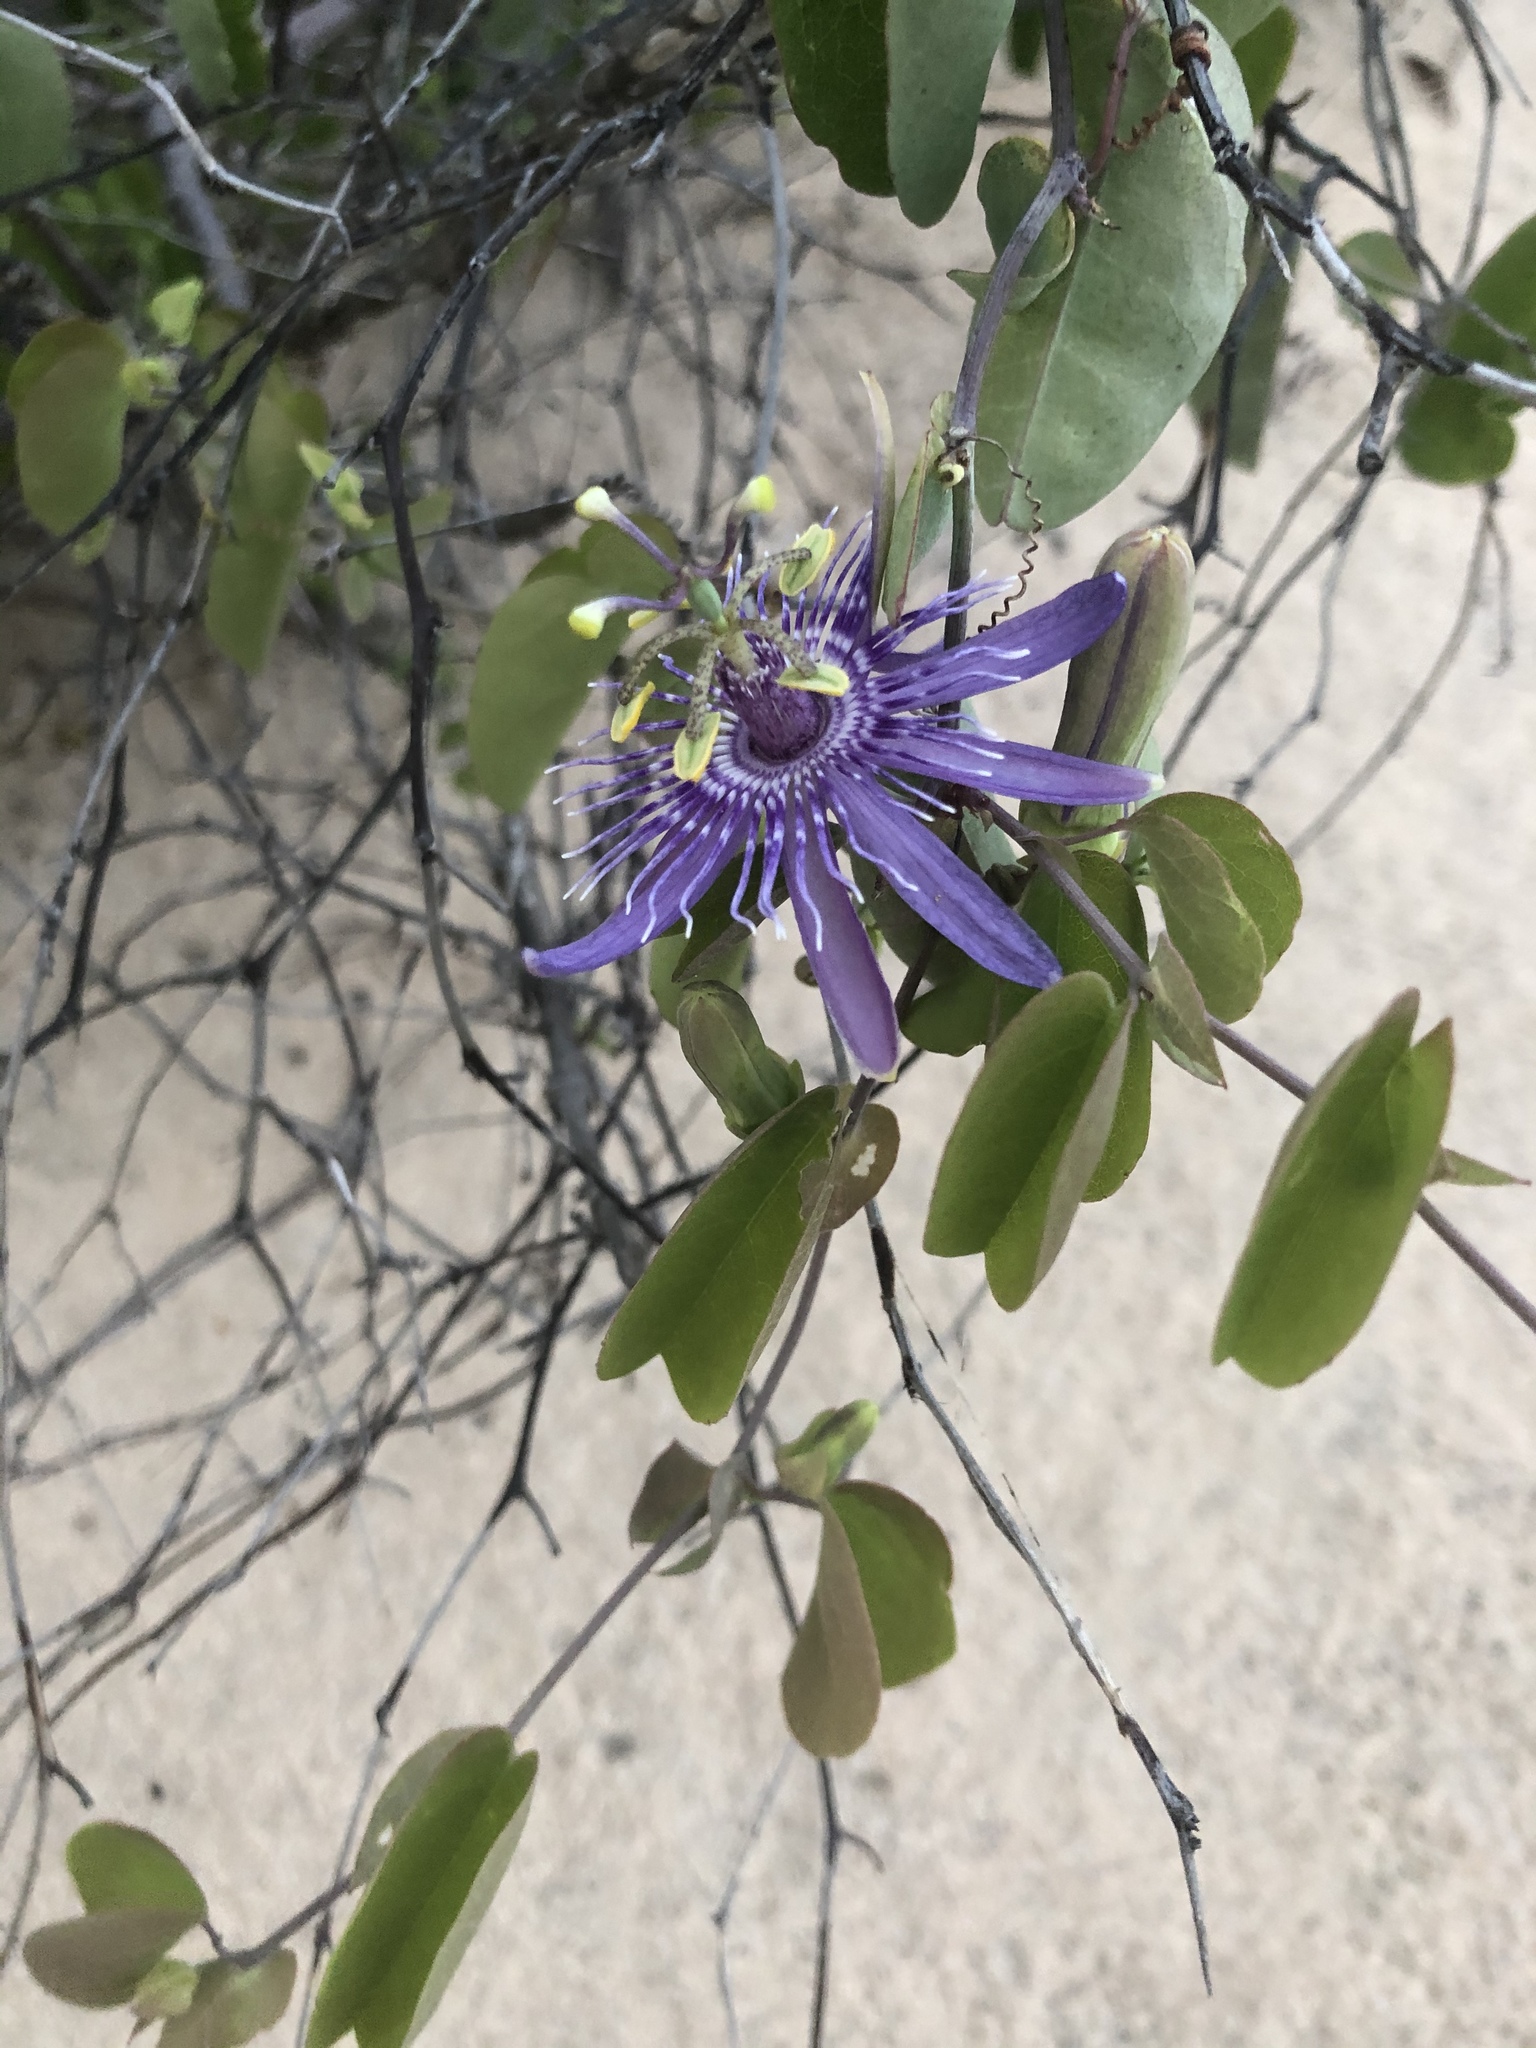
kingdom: Plantae
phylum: Tracheophyta
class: Magnoliopsida
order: Malpighiales
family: Passifloraceae
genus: Passiflora
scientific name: Passiflora subrotunda
